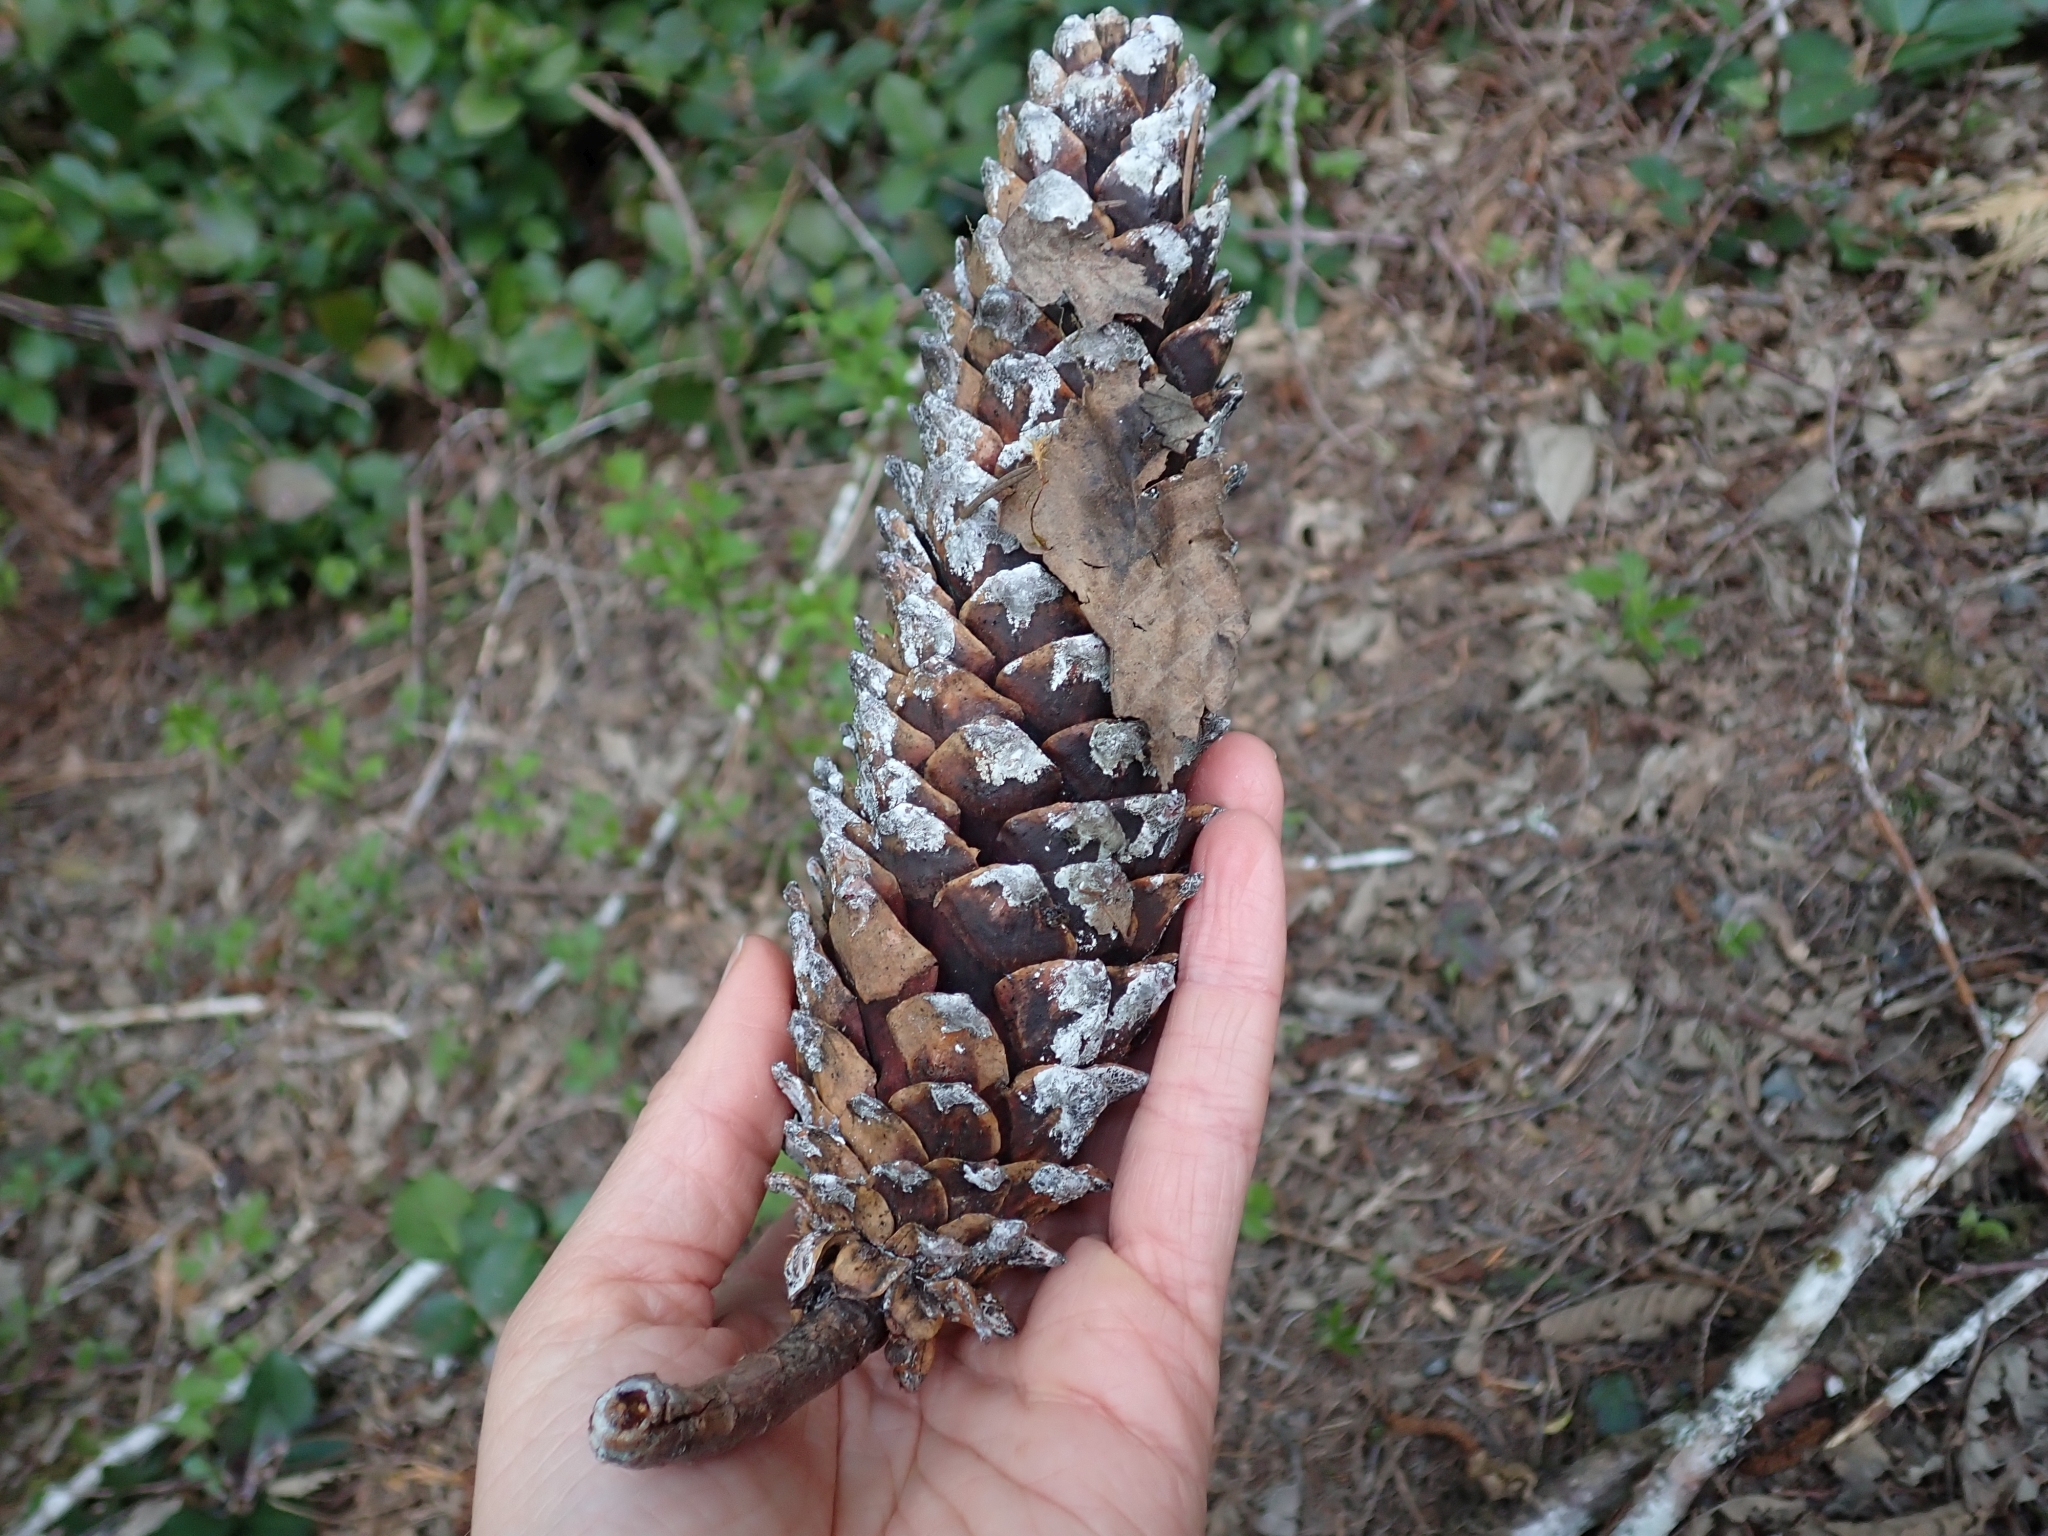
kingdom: Plantae
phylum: Tracheophyta
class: Pinopsida
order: Pinales
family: Pinaceae
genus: Pinus
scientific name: Pinus monticola
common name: Western white pine
